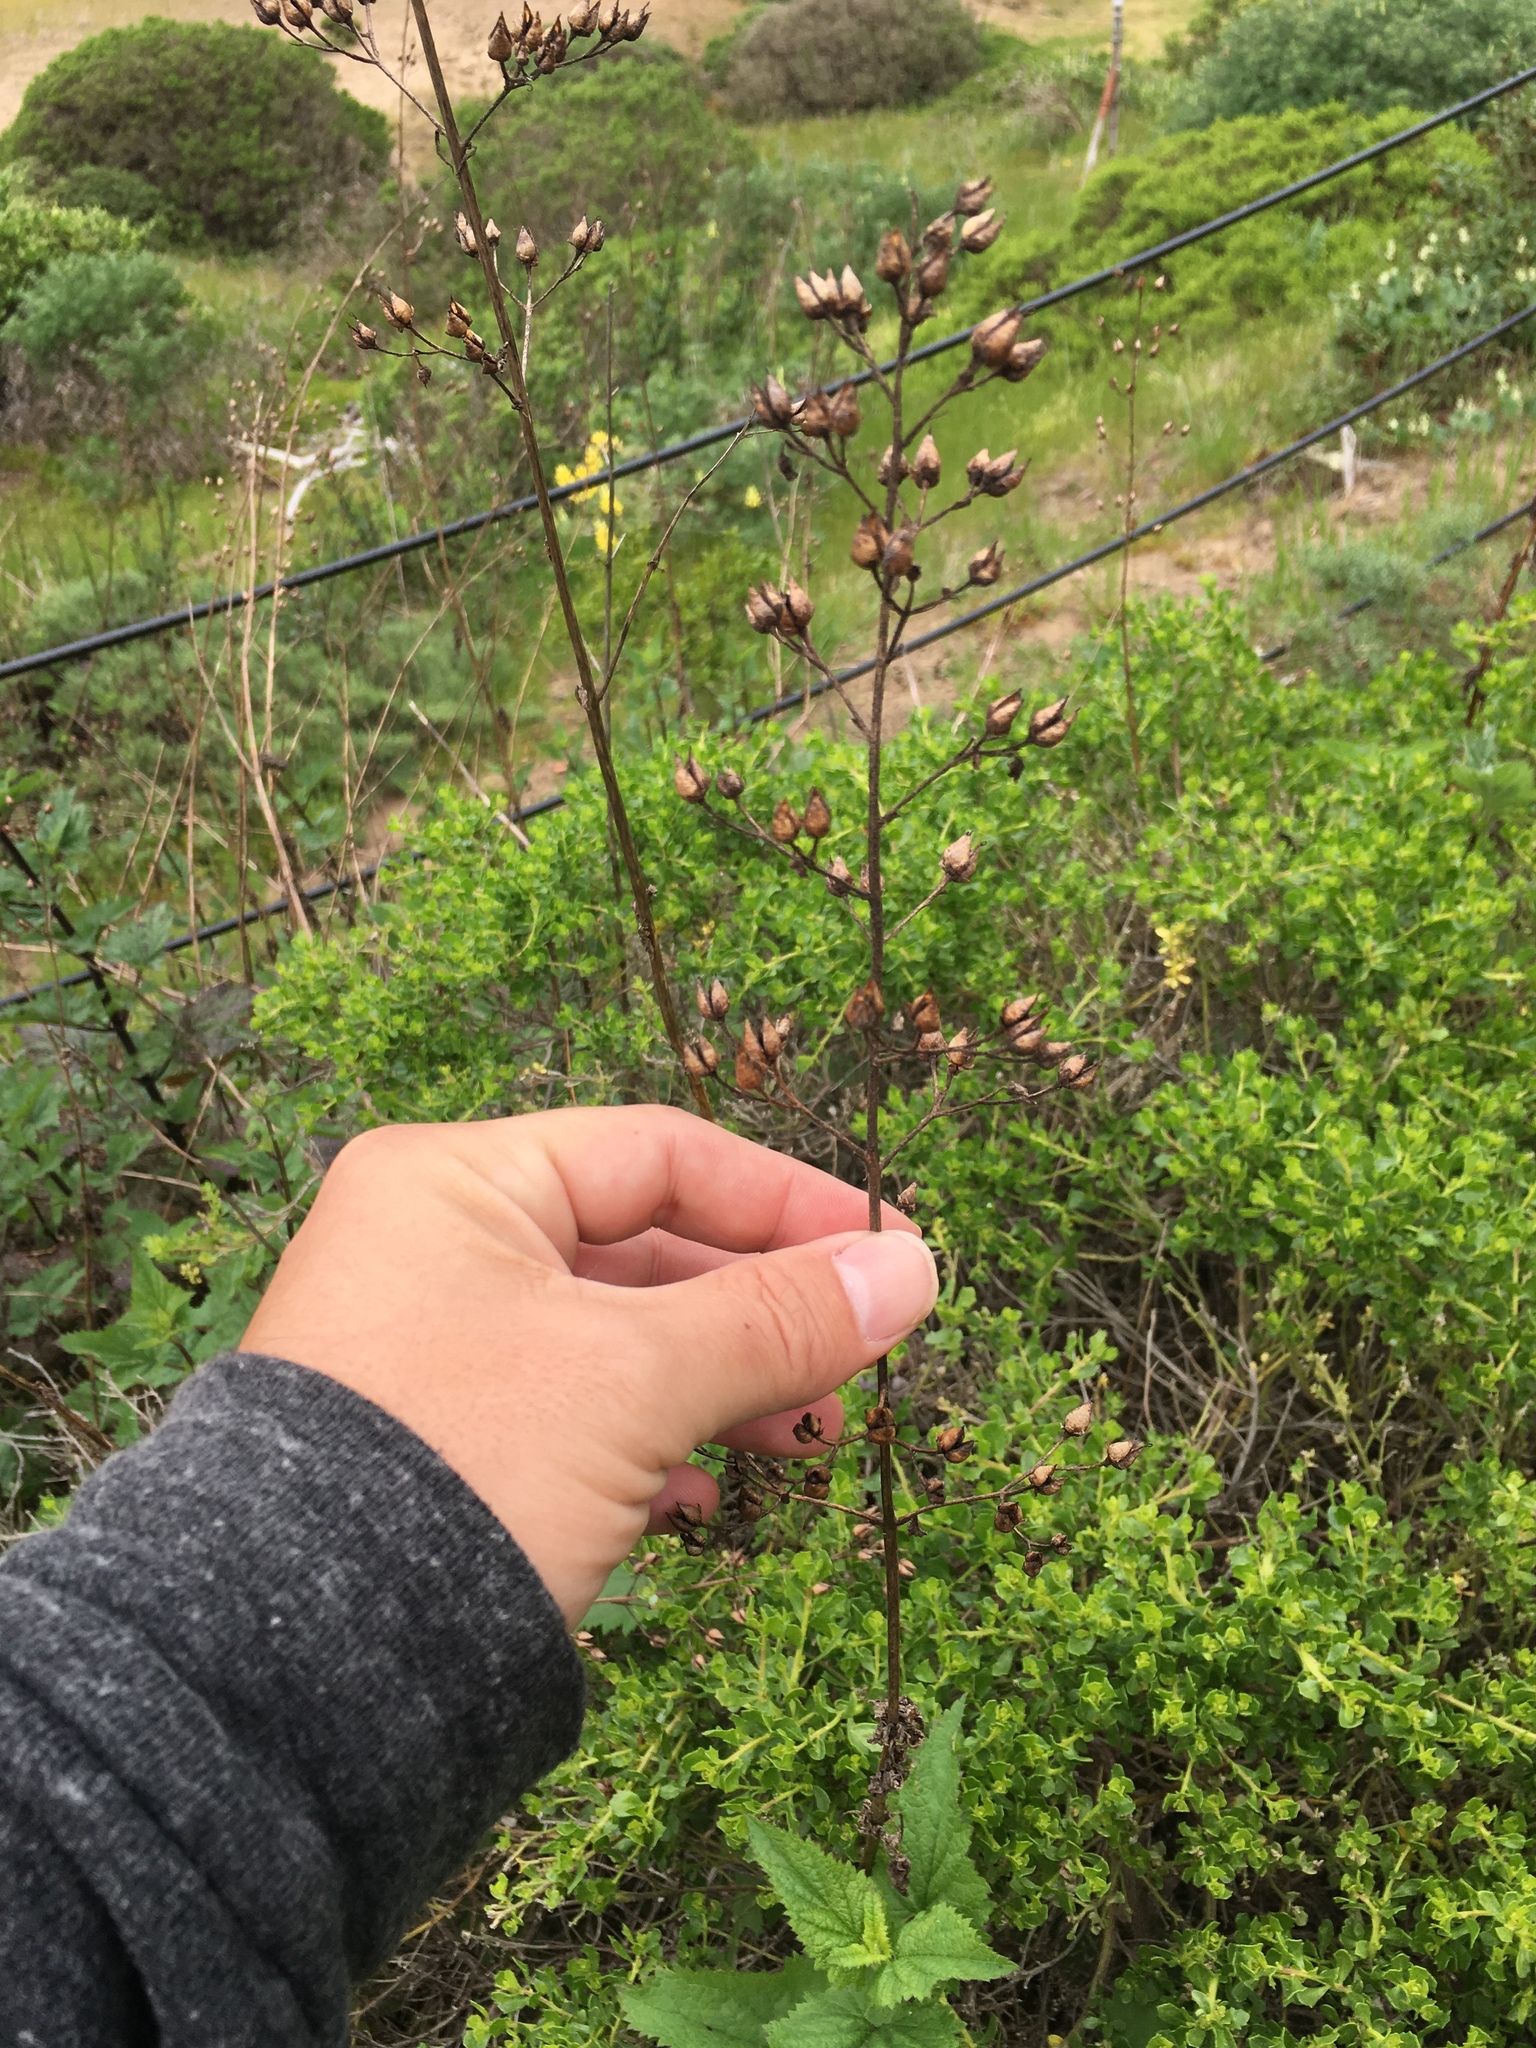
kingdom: Plantae
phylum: Tracheophyta
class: Magnoliopsida
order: Lamiales
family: Scrophulariaceae
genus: Scrophularia
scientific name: Scrophularia californica
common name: California figwort
